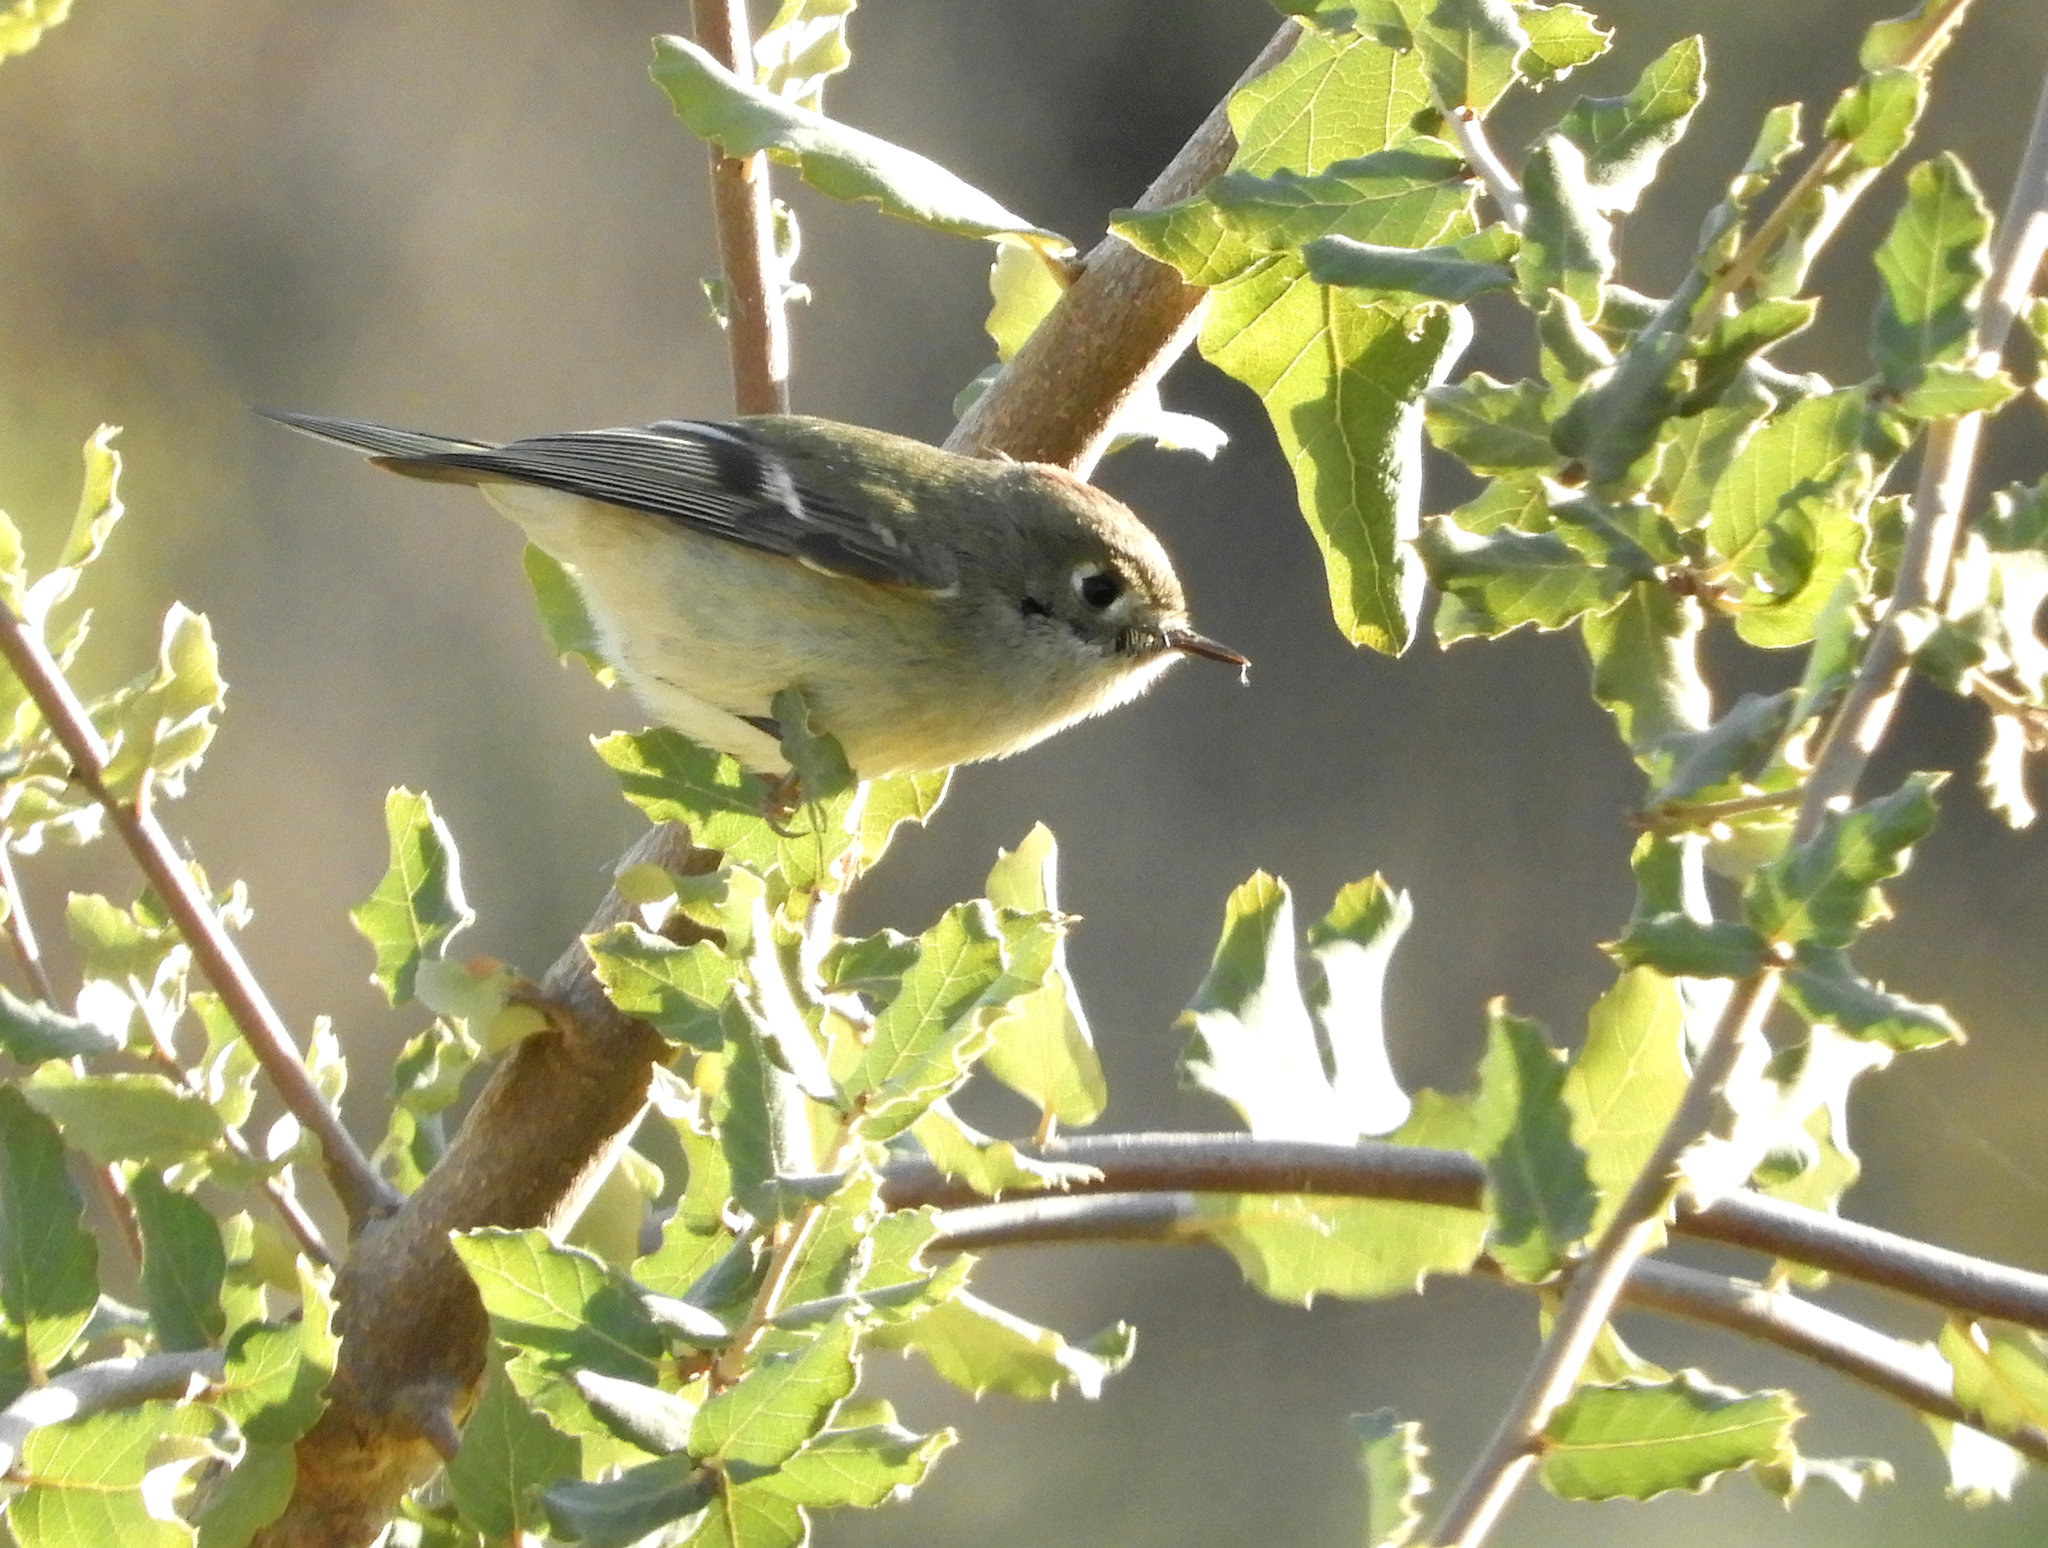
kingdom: Animalia
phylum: Chordata
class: Aves
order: Passeriformes
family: Regulidae
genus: Regulus
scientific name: Regulus calendula
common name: Ruby-crowned kinglet
